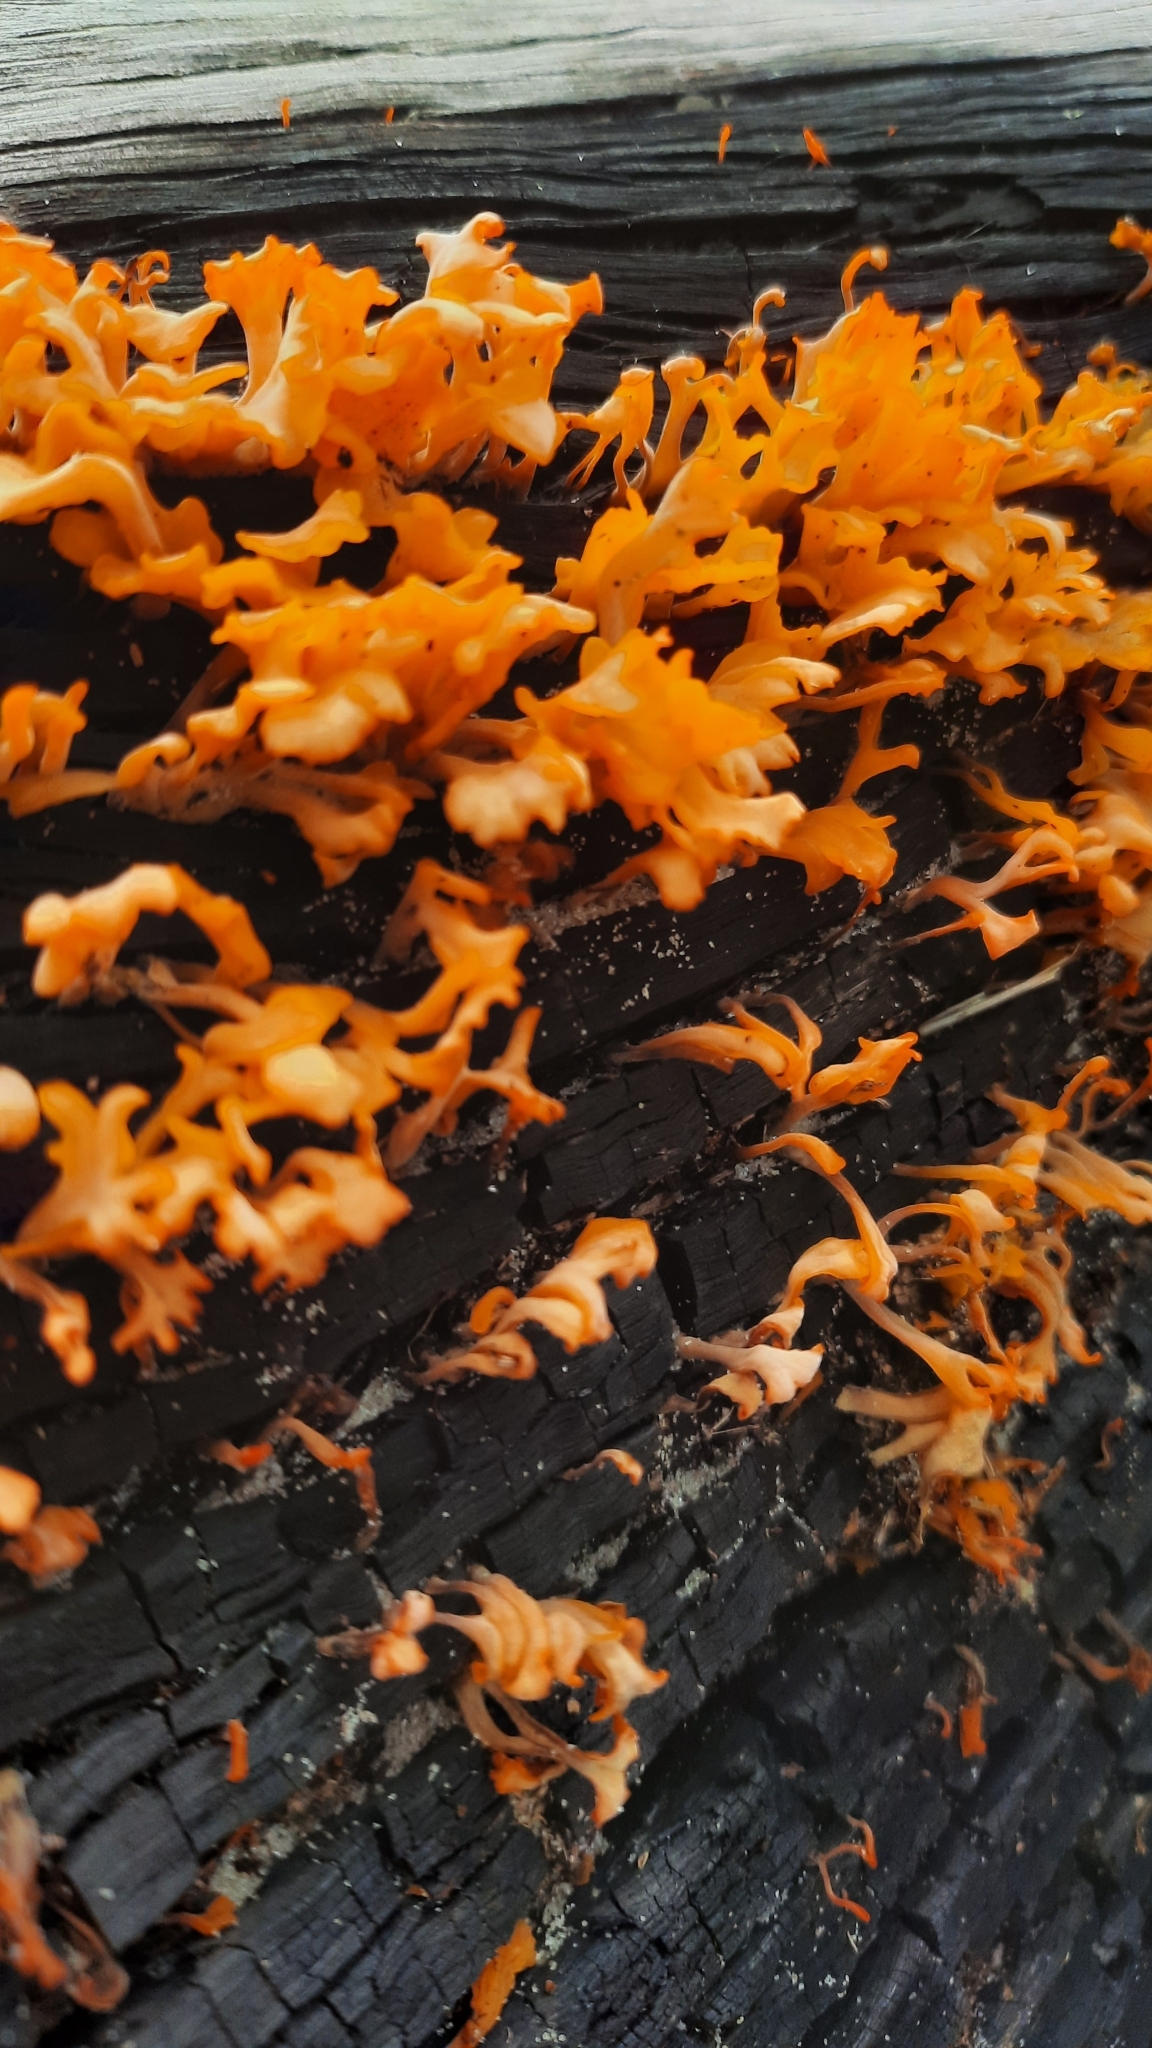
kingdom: Fungi
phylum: Basidiomycota
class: Dacrymycetes
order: Dacrymycetales
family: Dacrymycetaceae
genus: Dacrymyces
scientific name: Dacrymyces spathularius
